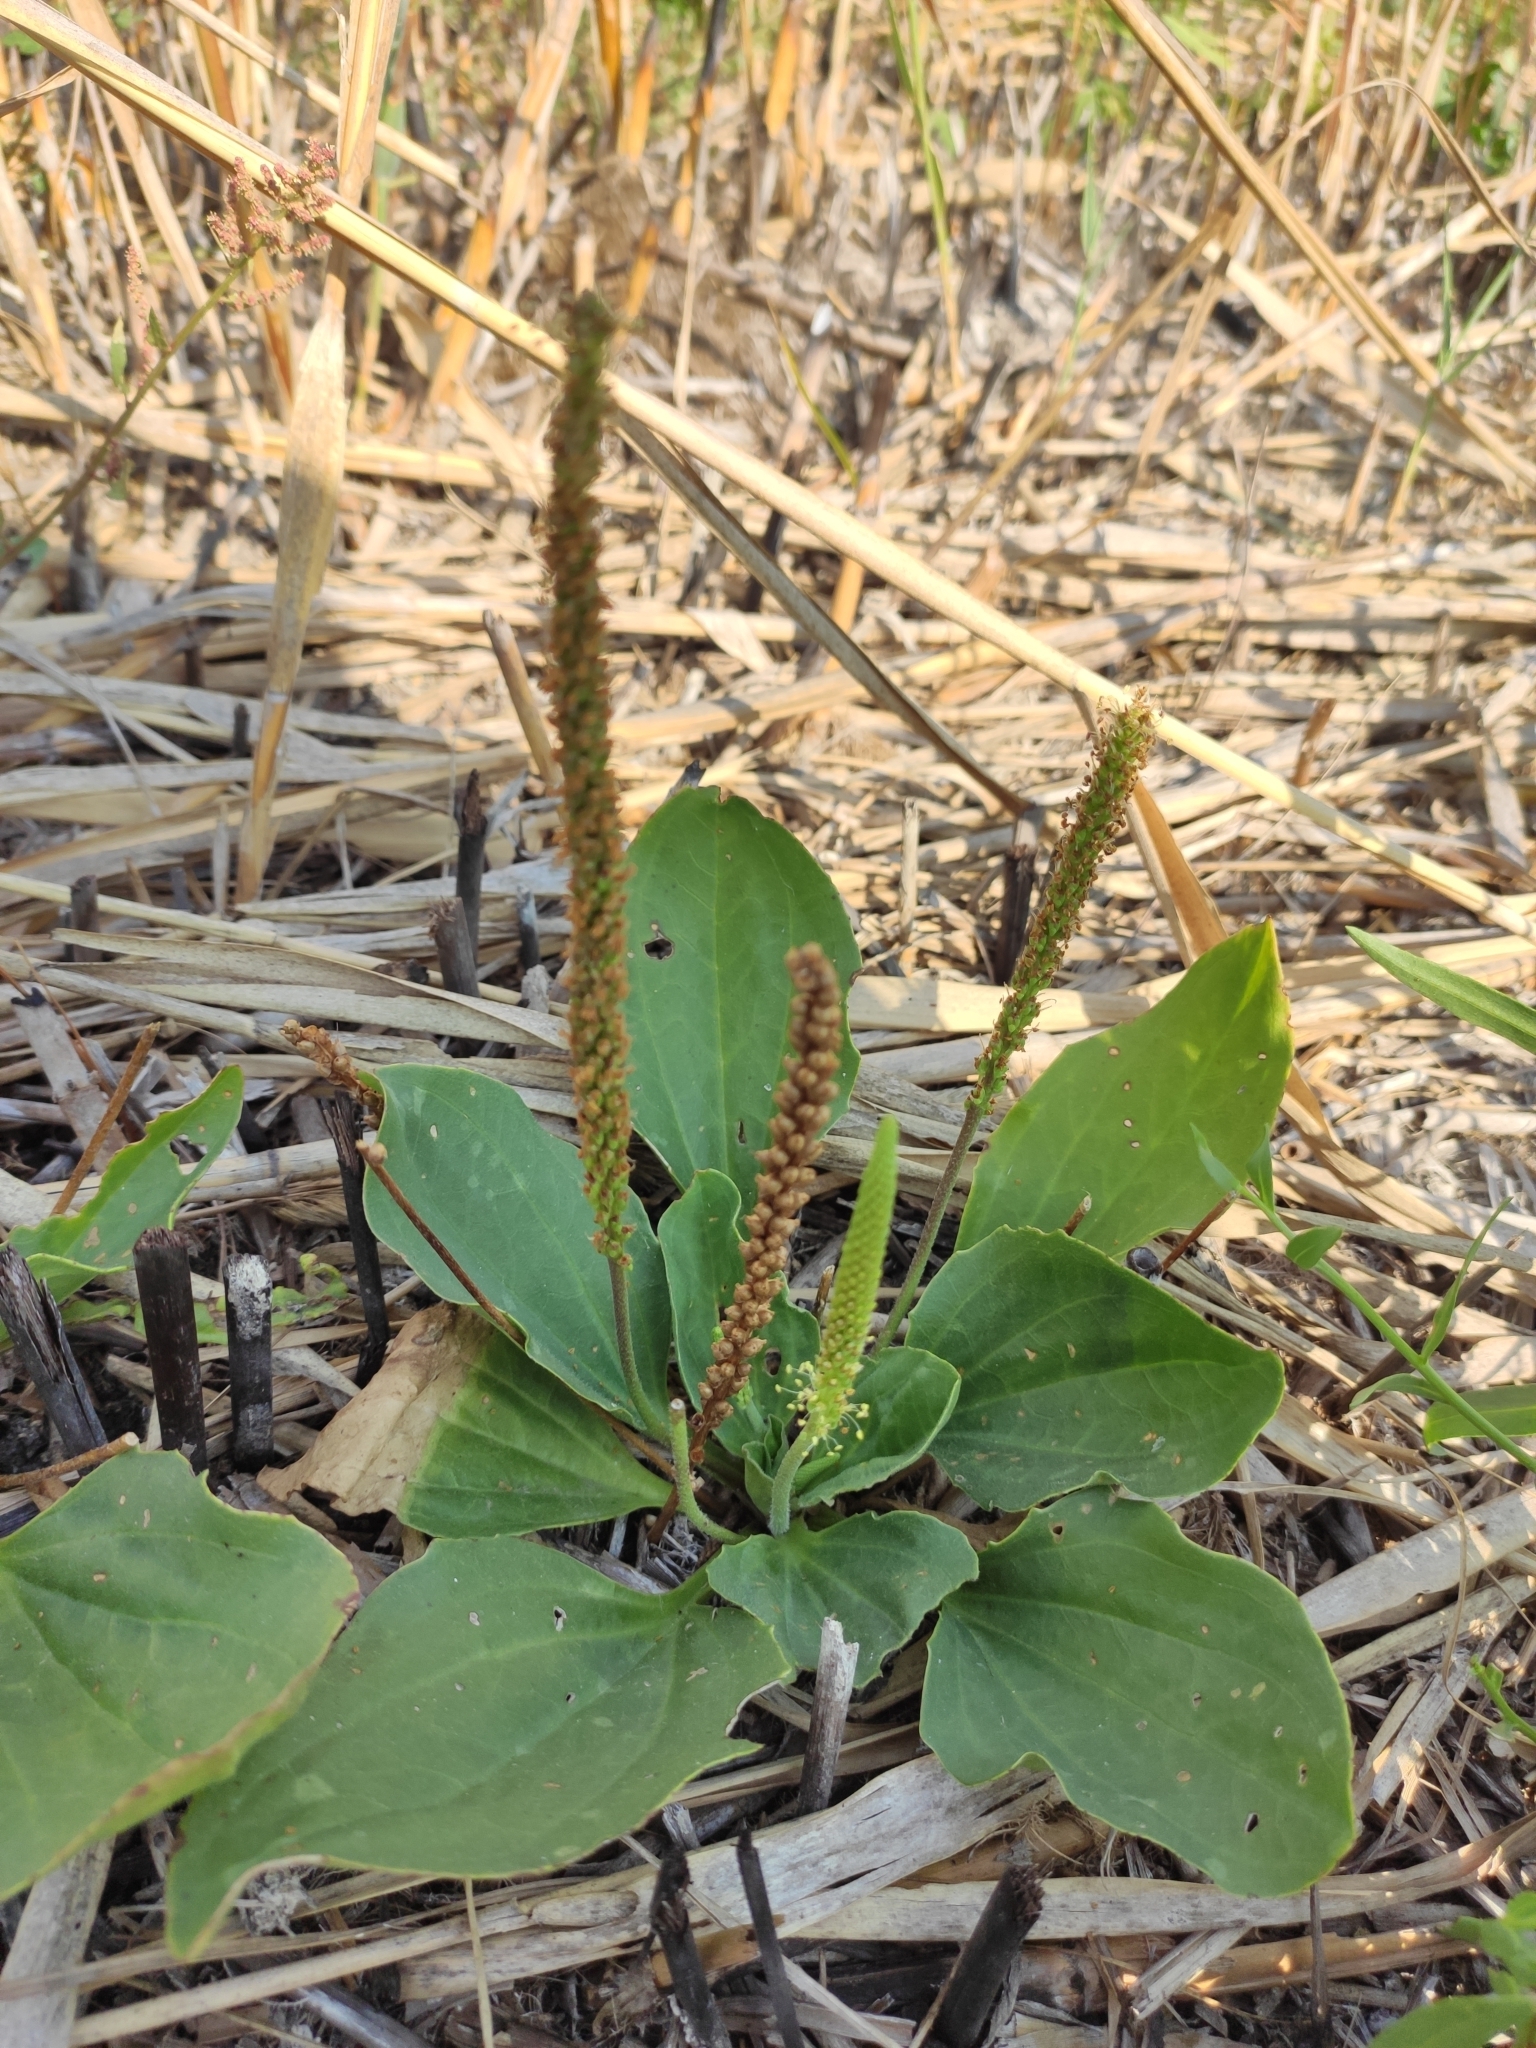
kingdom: Plantae
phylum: Tracheophyta
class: Magnoliopsida
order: Lamiales
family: Plantaginaceae
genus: Plantago
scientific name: Plantago major
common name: Common plantain
